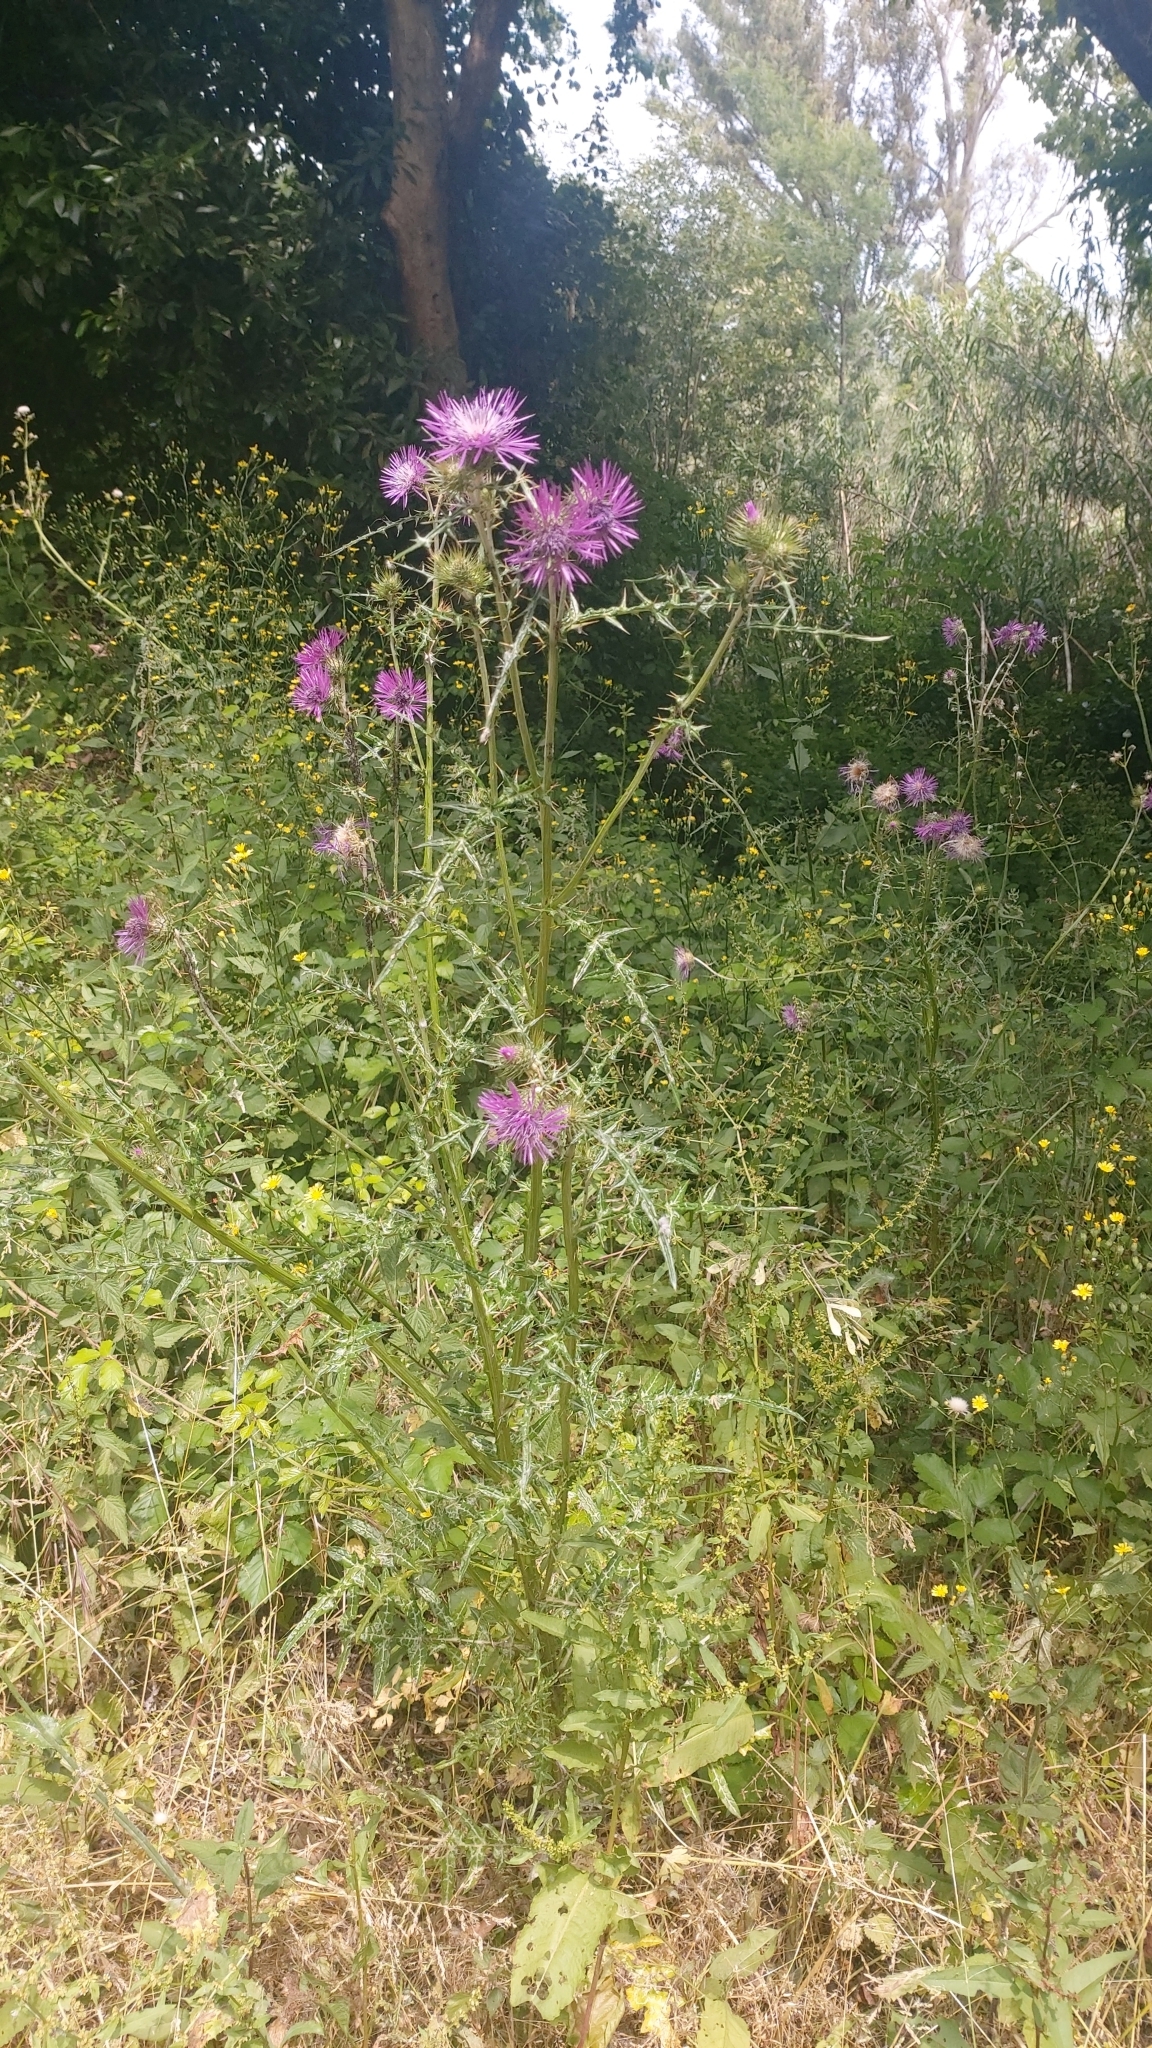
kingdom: Plantae
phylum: Tracheophyta
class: Magnoliopsida
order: Asterales
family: Asteraceae
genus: Galactites
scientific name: Galactites tomentosa
